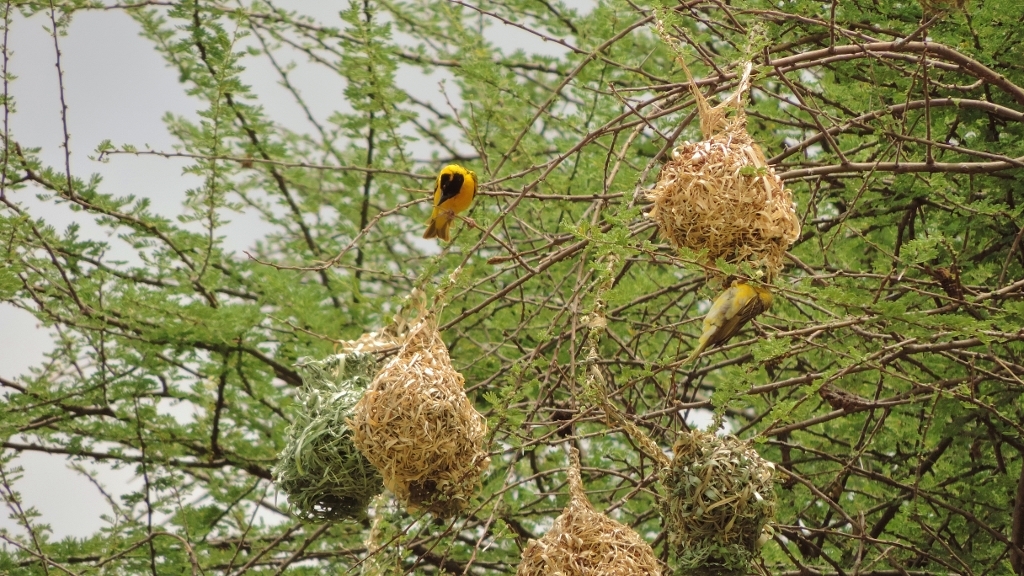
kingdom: Animalia
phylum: Chordata
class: Aves
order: Passeriformes
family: Ploceidae
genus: Ploceus
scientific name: Ploceus cucullatus
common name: Village weaver
